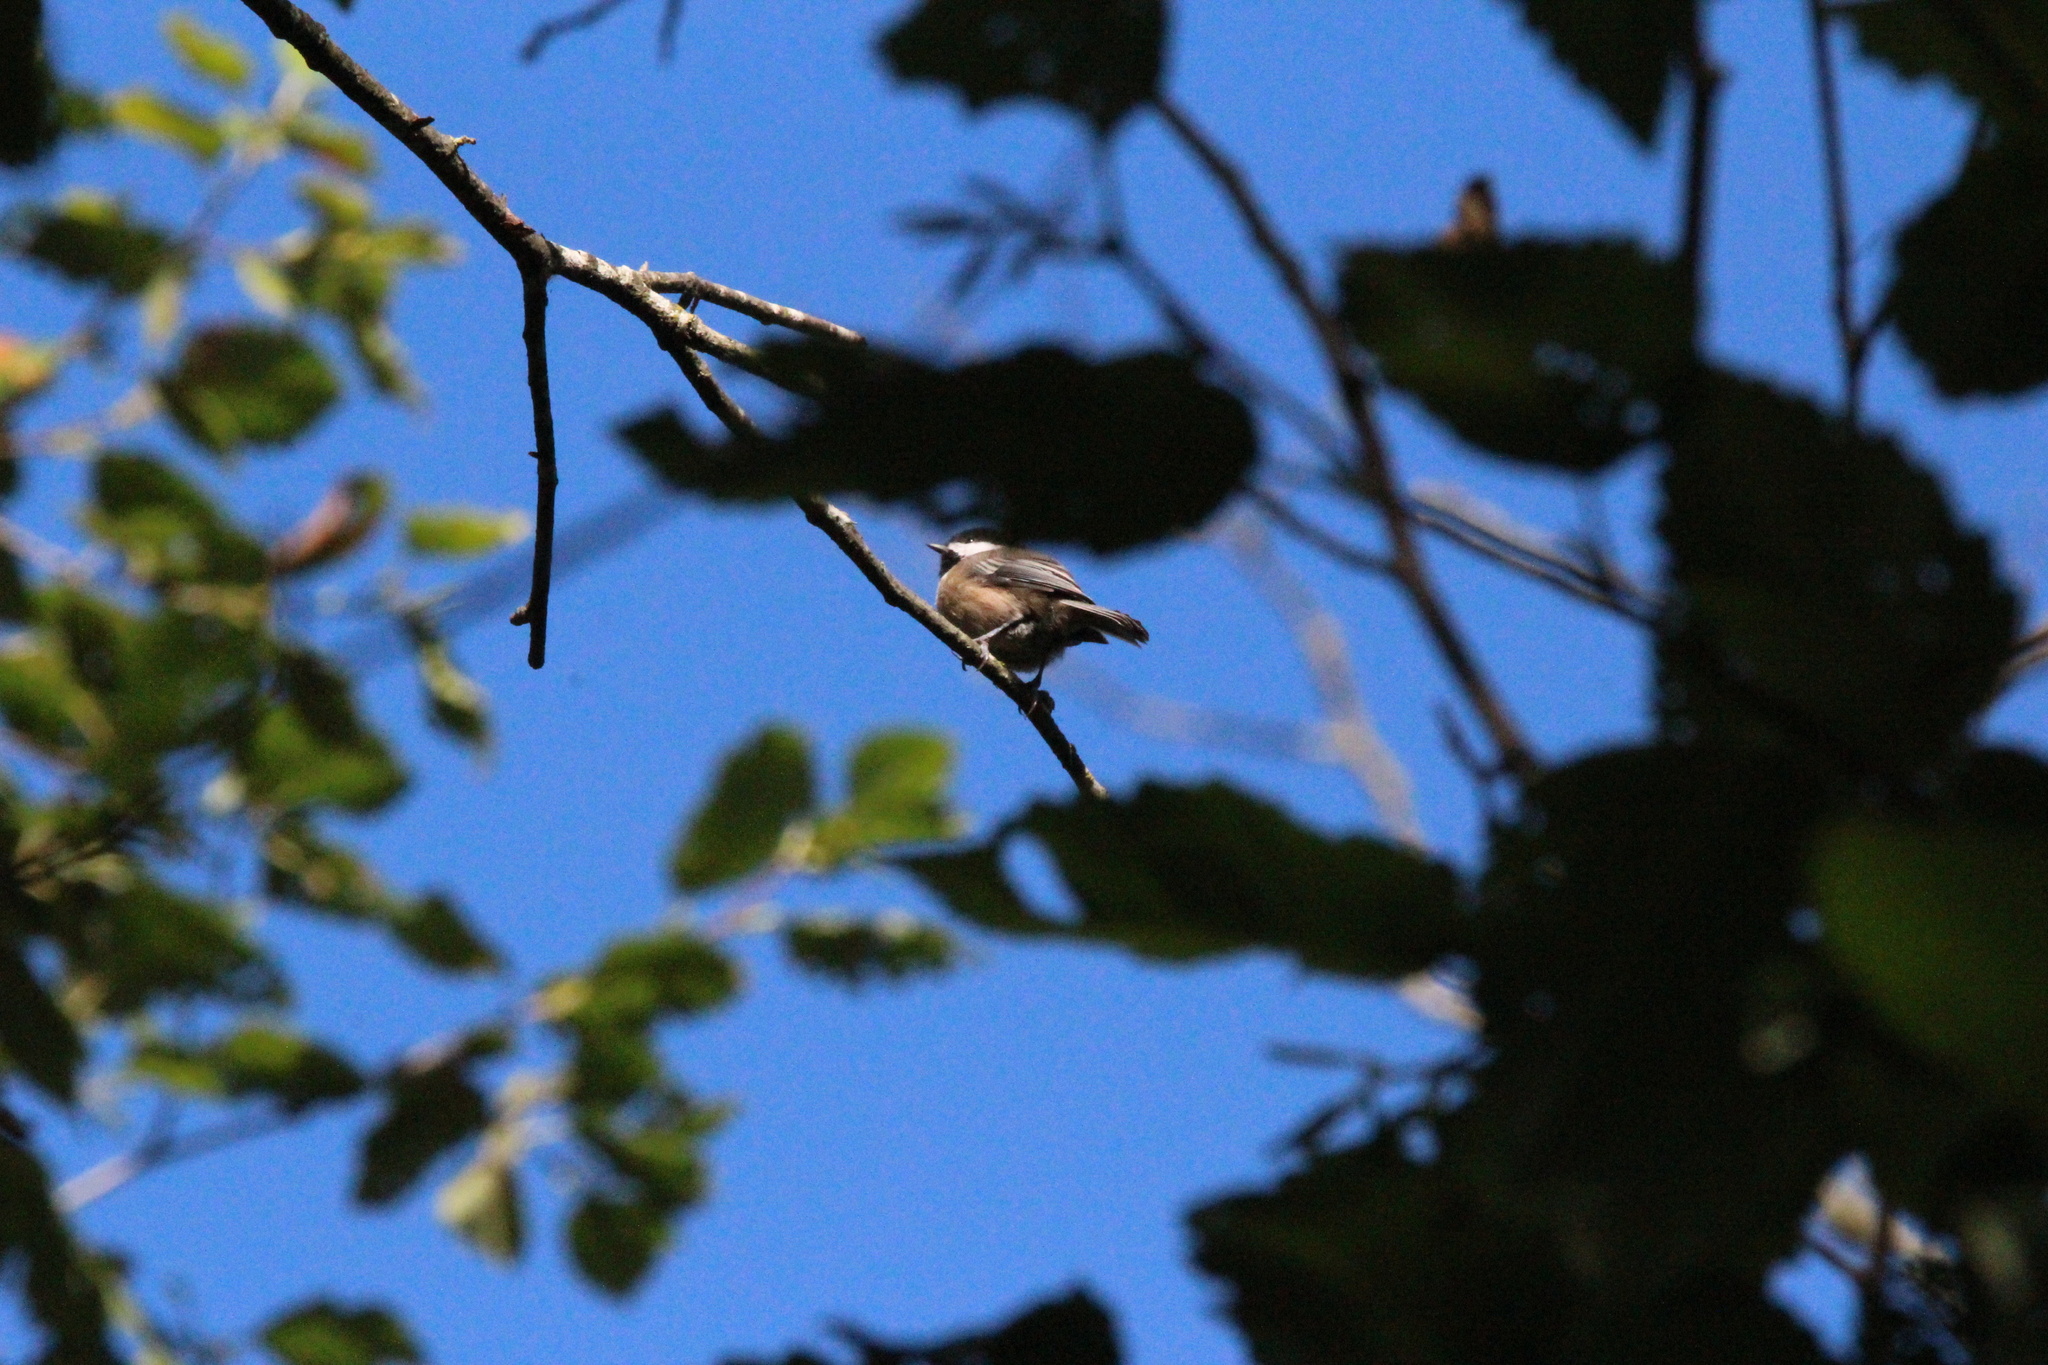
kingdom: Animalia
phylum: Chordata
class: Aves
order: Passeriformes
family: Paridae
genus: Poecile
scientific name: Poecile atricapillus
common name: Black-capped chickadee
